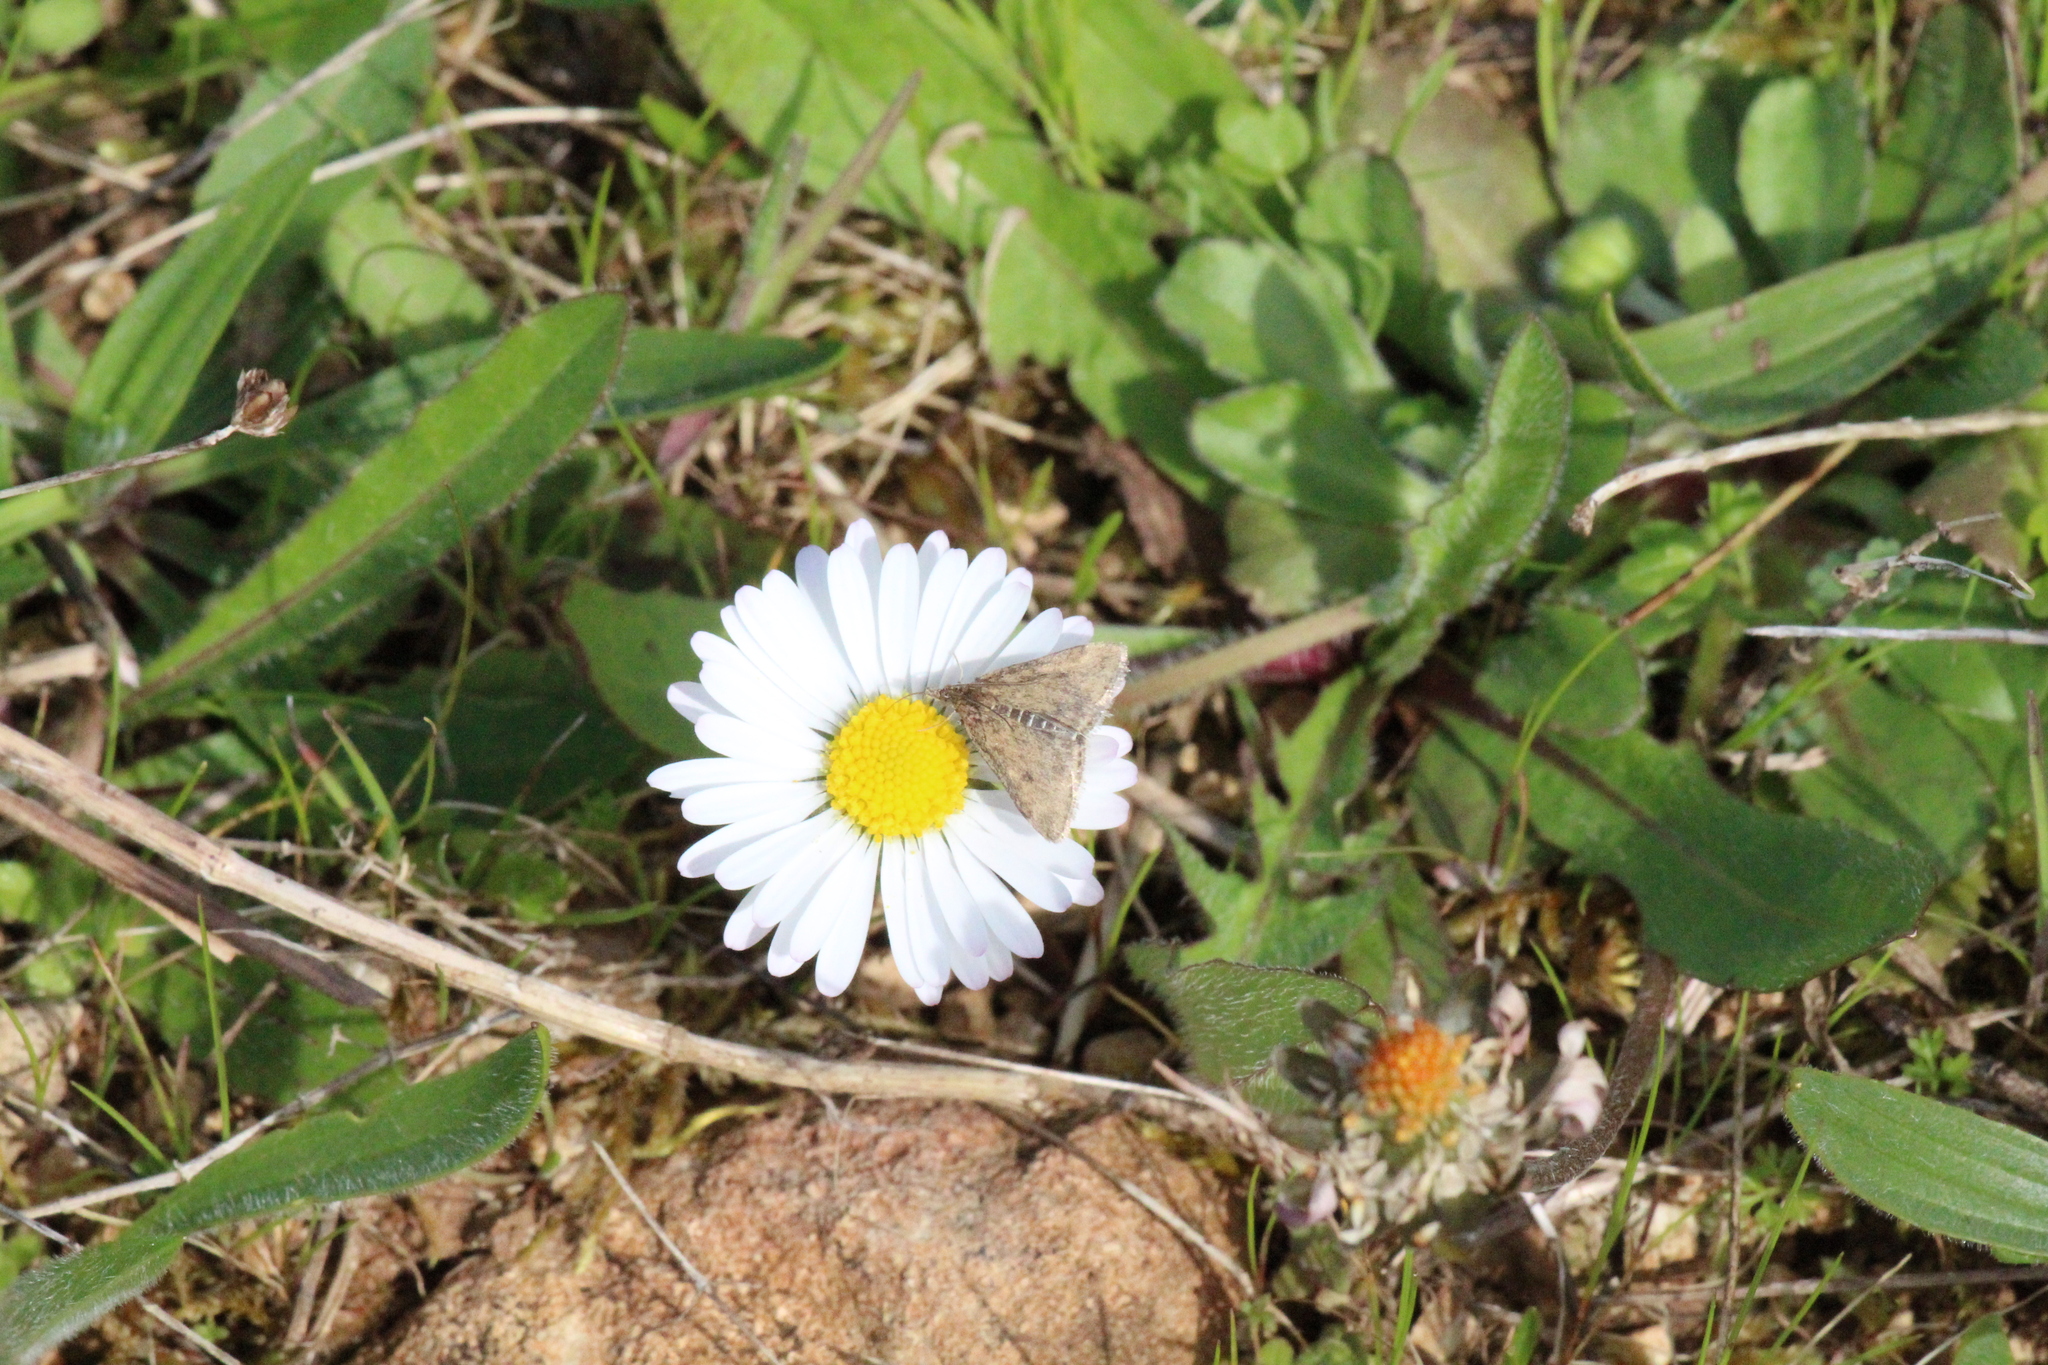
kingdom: Animalia
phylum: Arthropoda
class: Insecta
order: Lepidoptera
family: Crambidae
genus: Pyrausta
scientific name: Pyrausta despicata
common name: Straw-barred pearl
